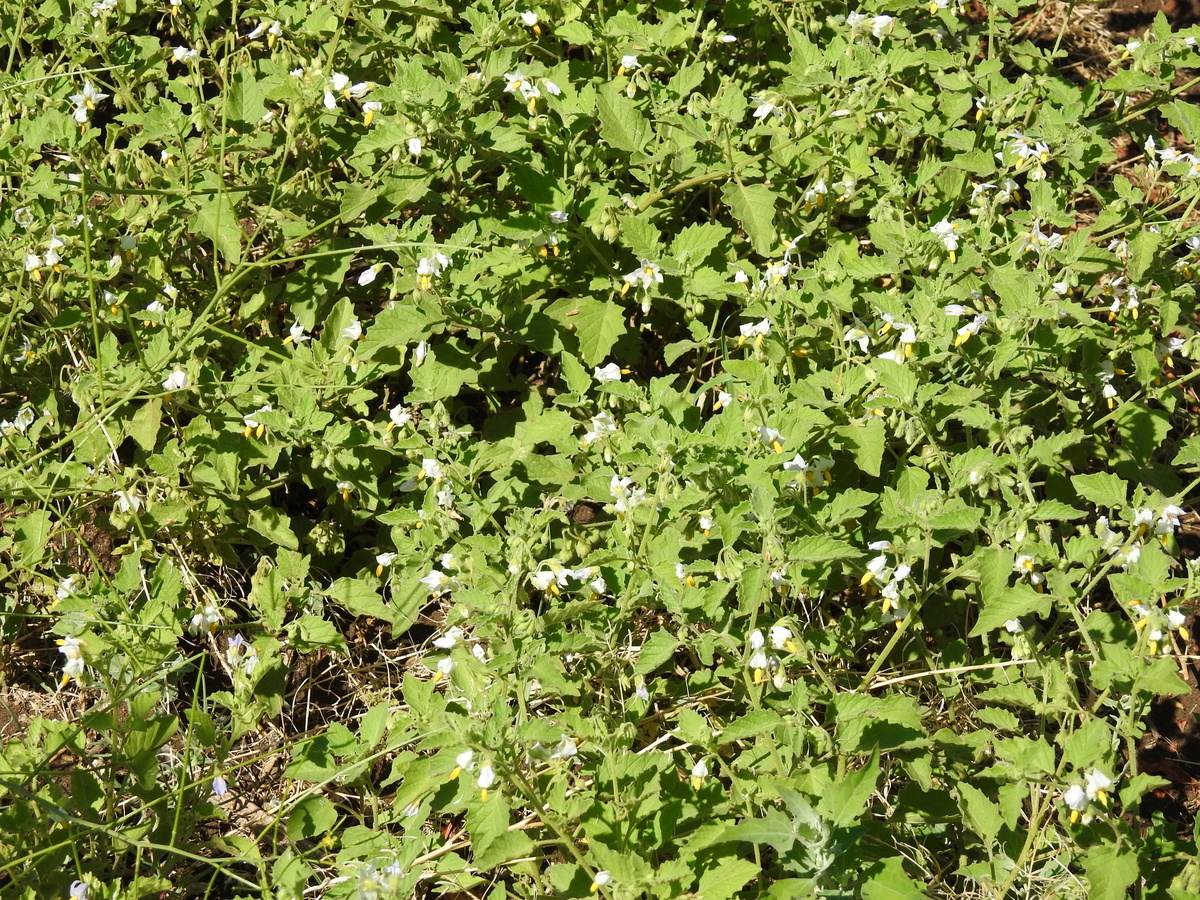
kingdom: Plantae
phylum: Tracheophyta
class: Magnoliopsida
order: Solanales
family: Solanaceae
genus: Solanum
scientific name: Solanum tweedianum
